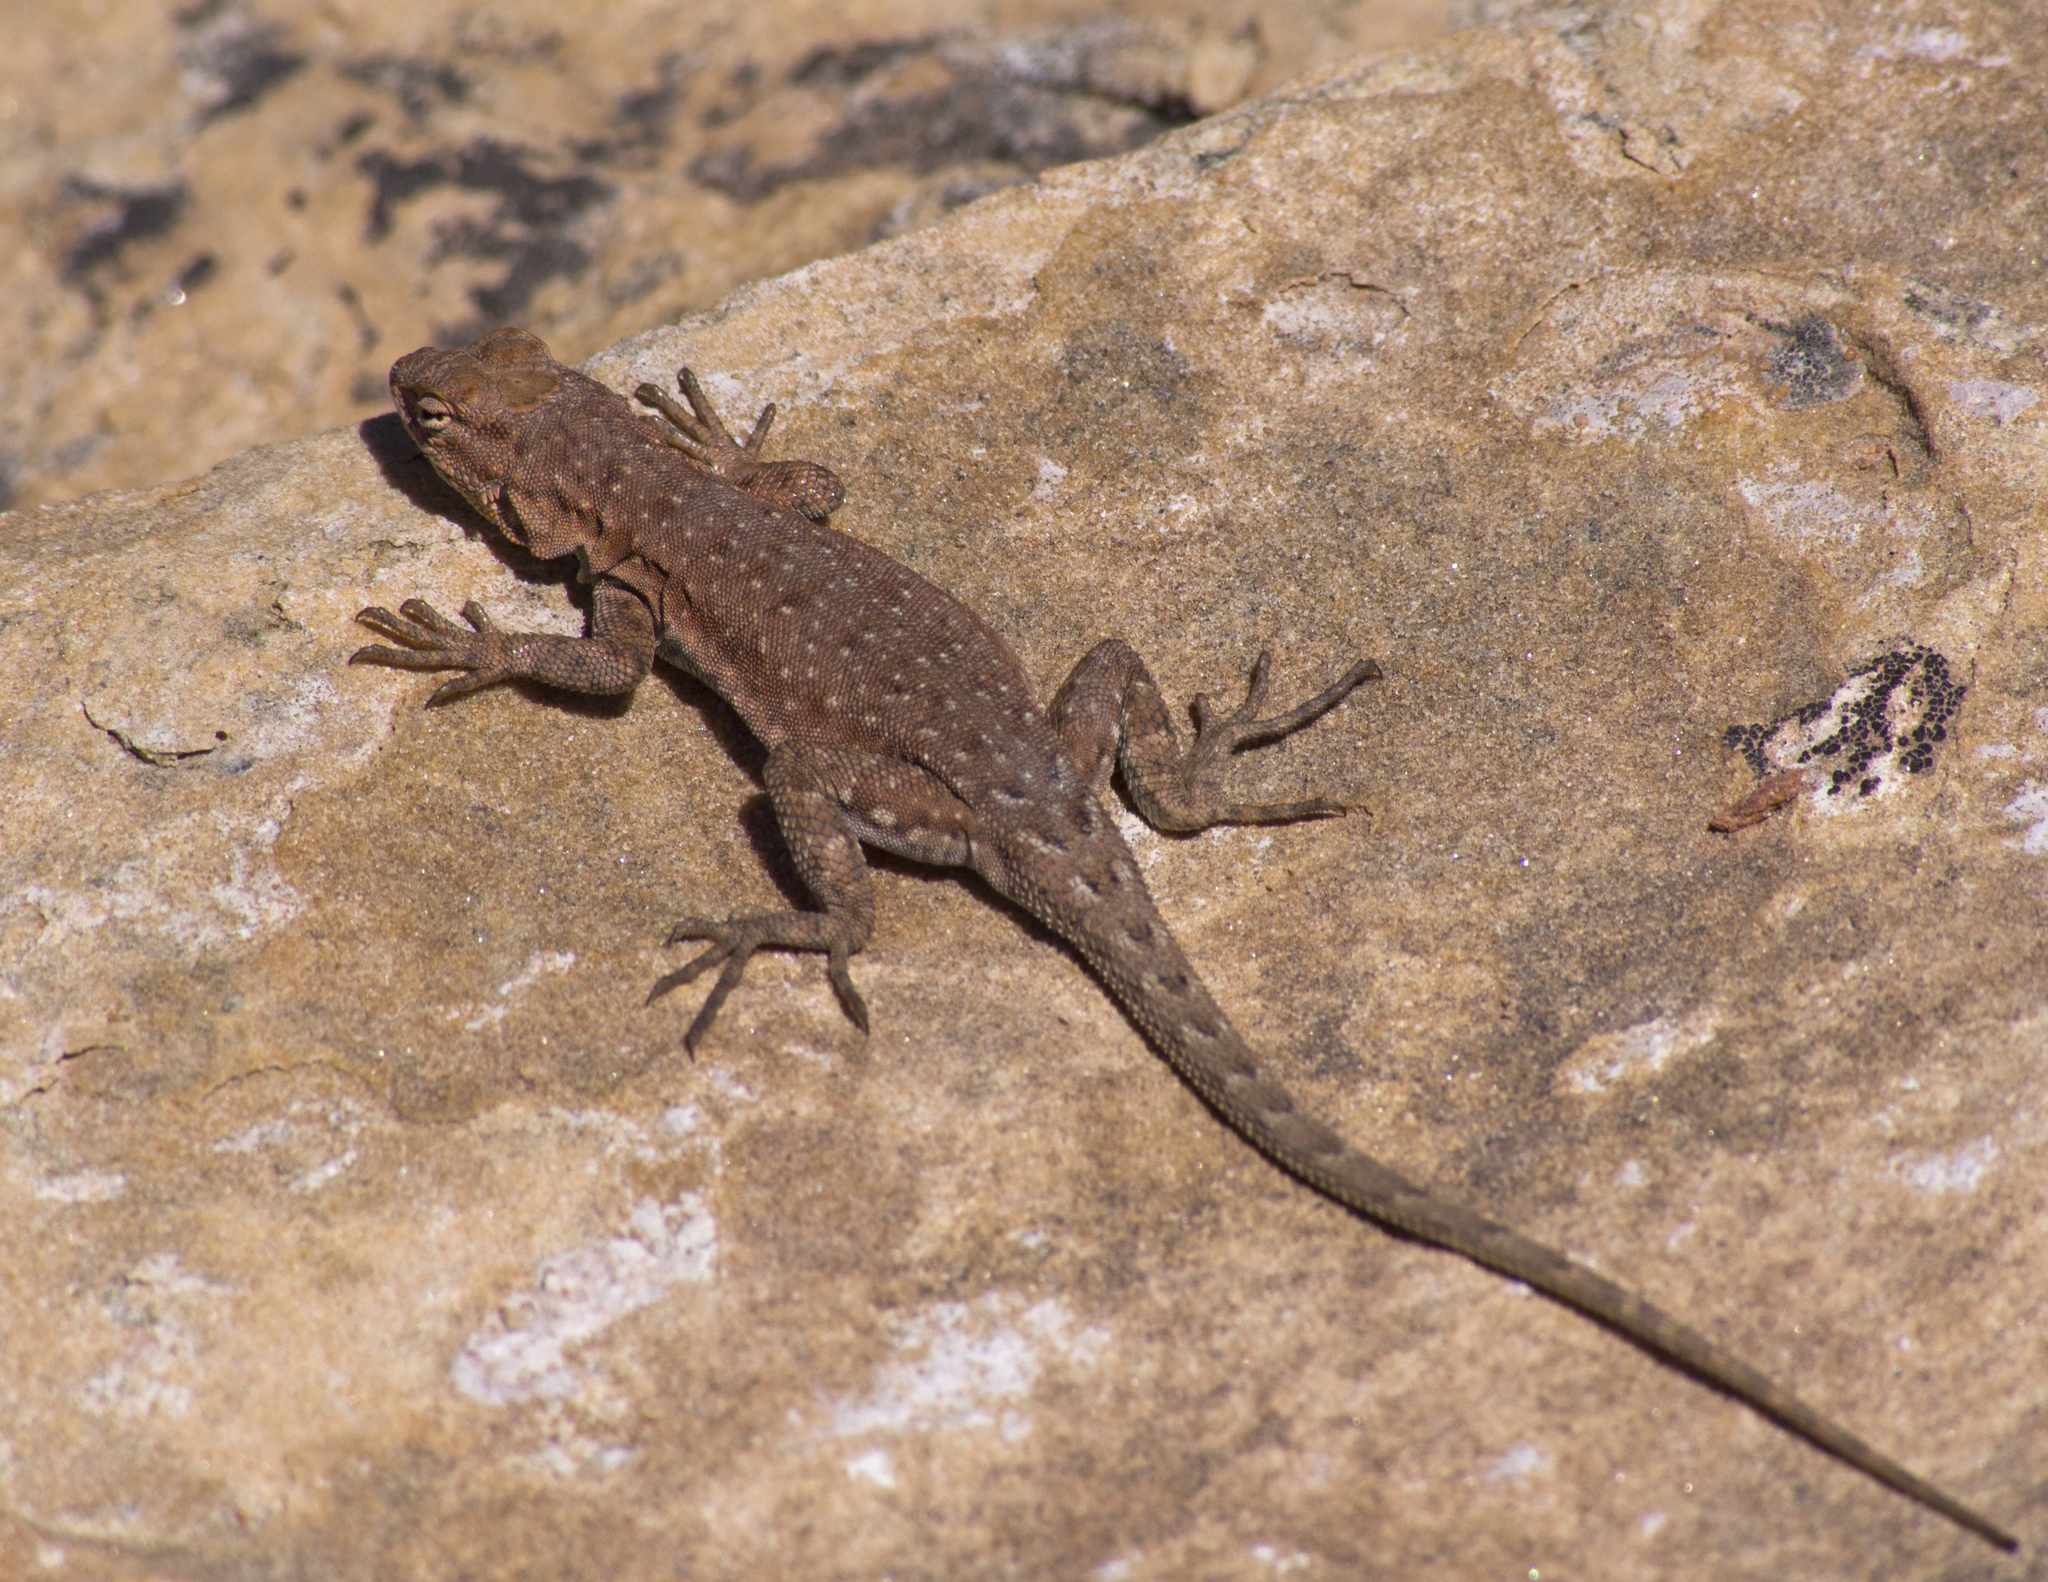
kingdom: Animalia
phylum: Chordata
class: Squamata
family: Phrynosomatidae
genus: Uta
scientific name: Uta stansburiana
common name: Side-blotched lizard
